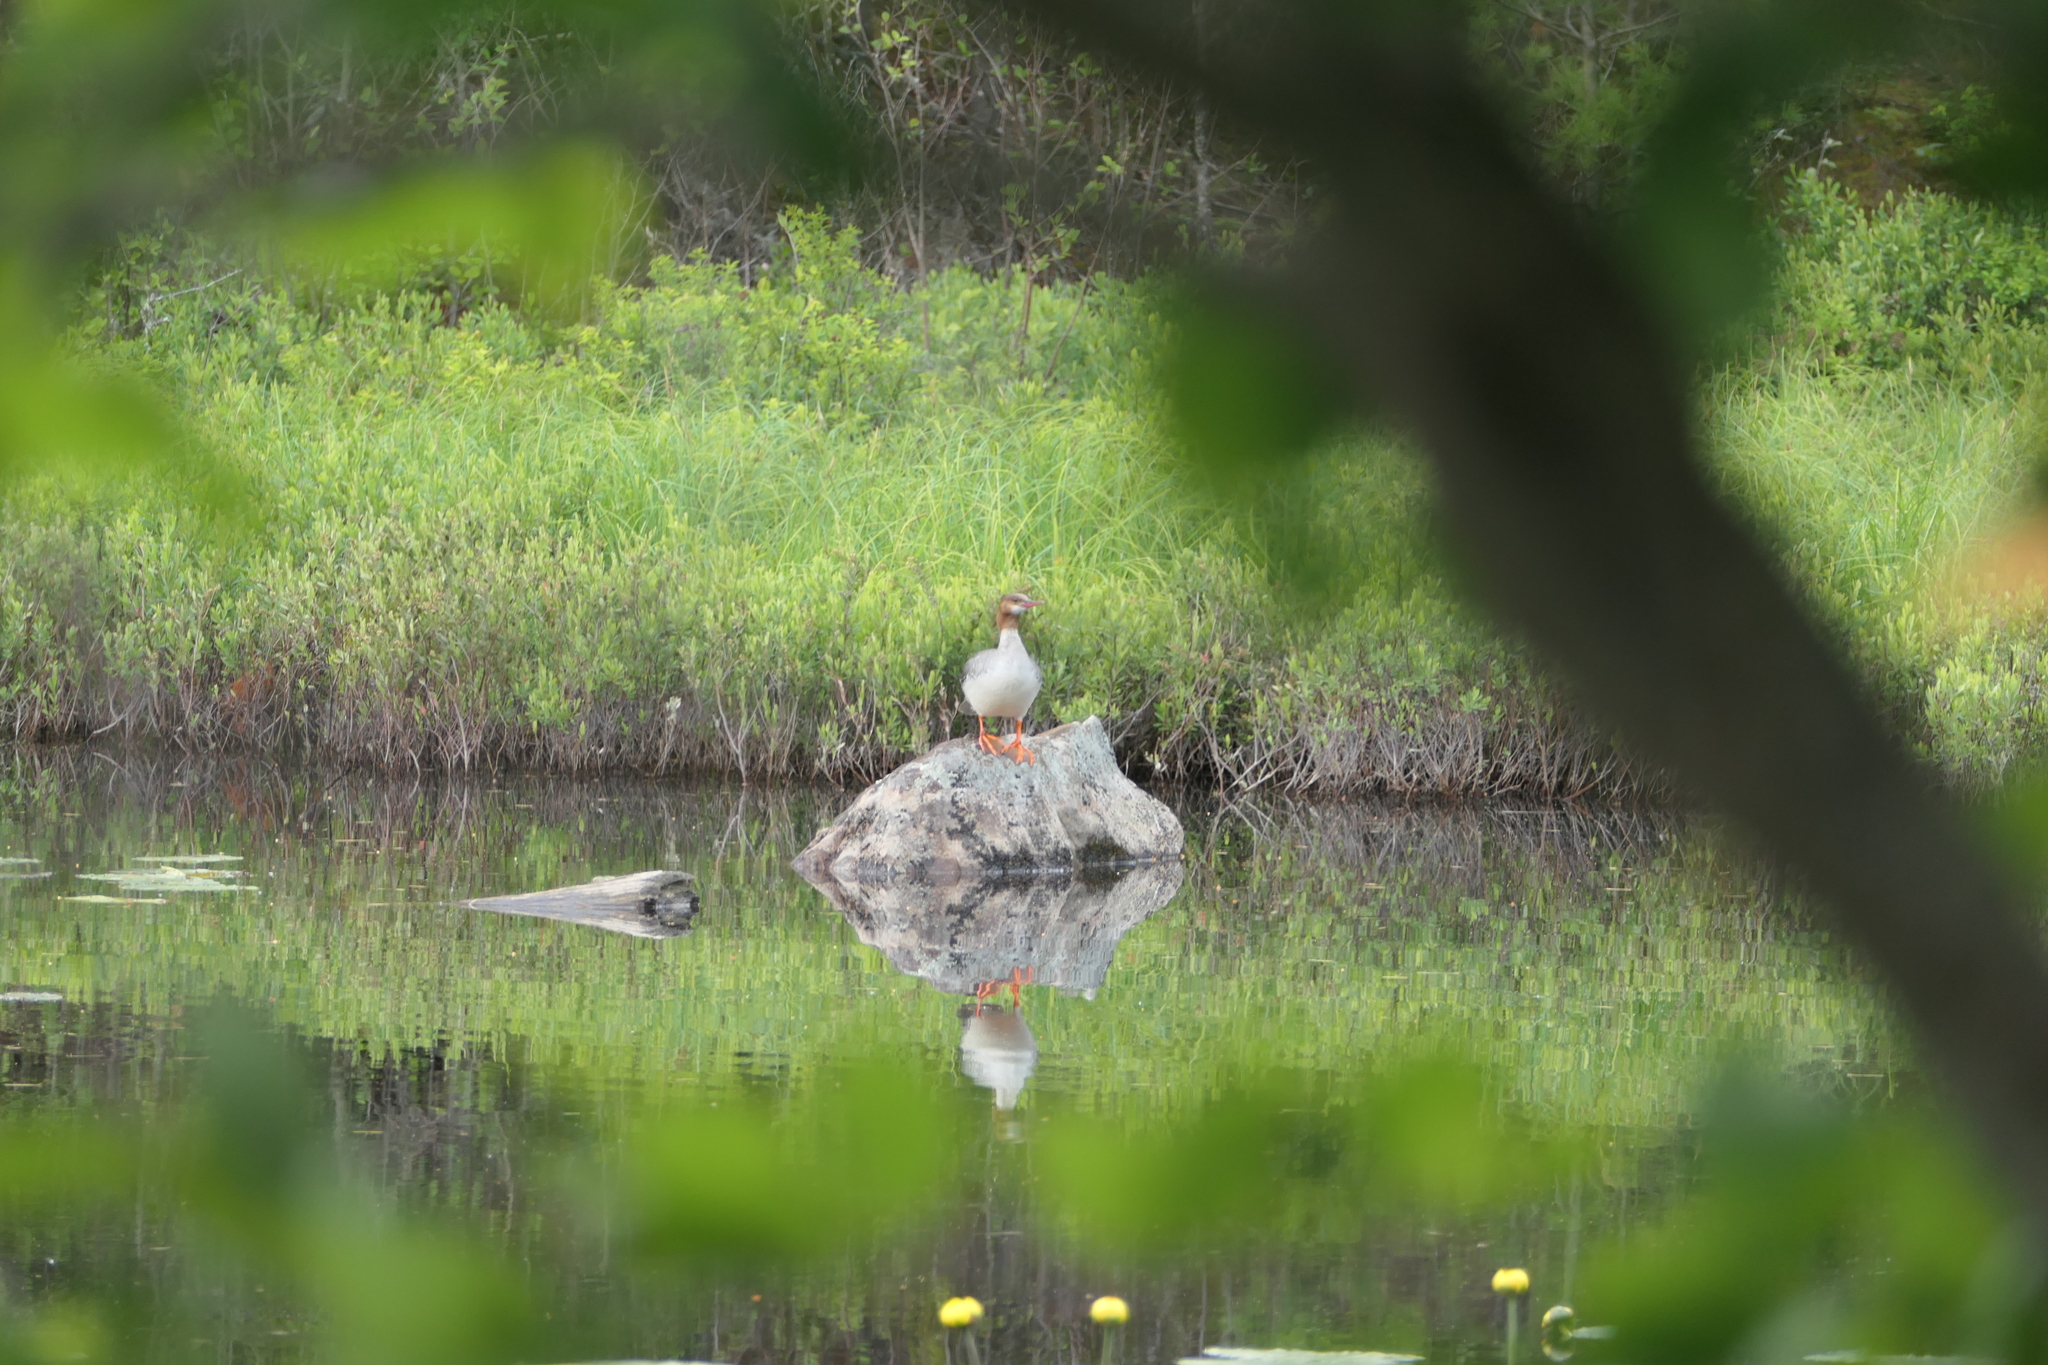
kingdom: Animalia
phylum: Chordata
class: Aves
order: Anseriformes
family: Anatidae
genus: Mergus
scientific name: Mergus merganser
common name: Common merganser
